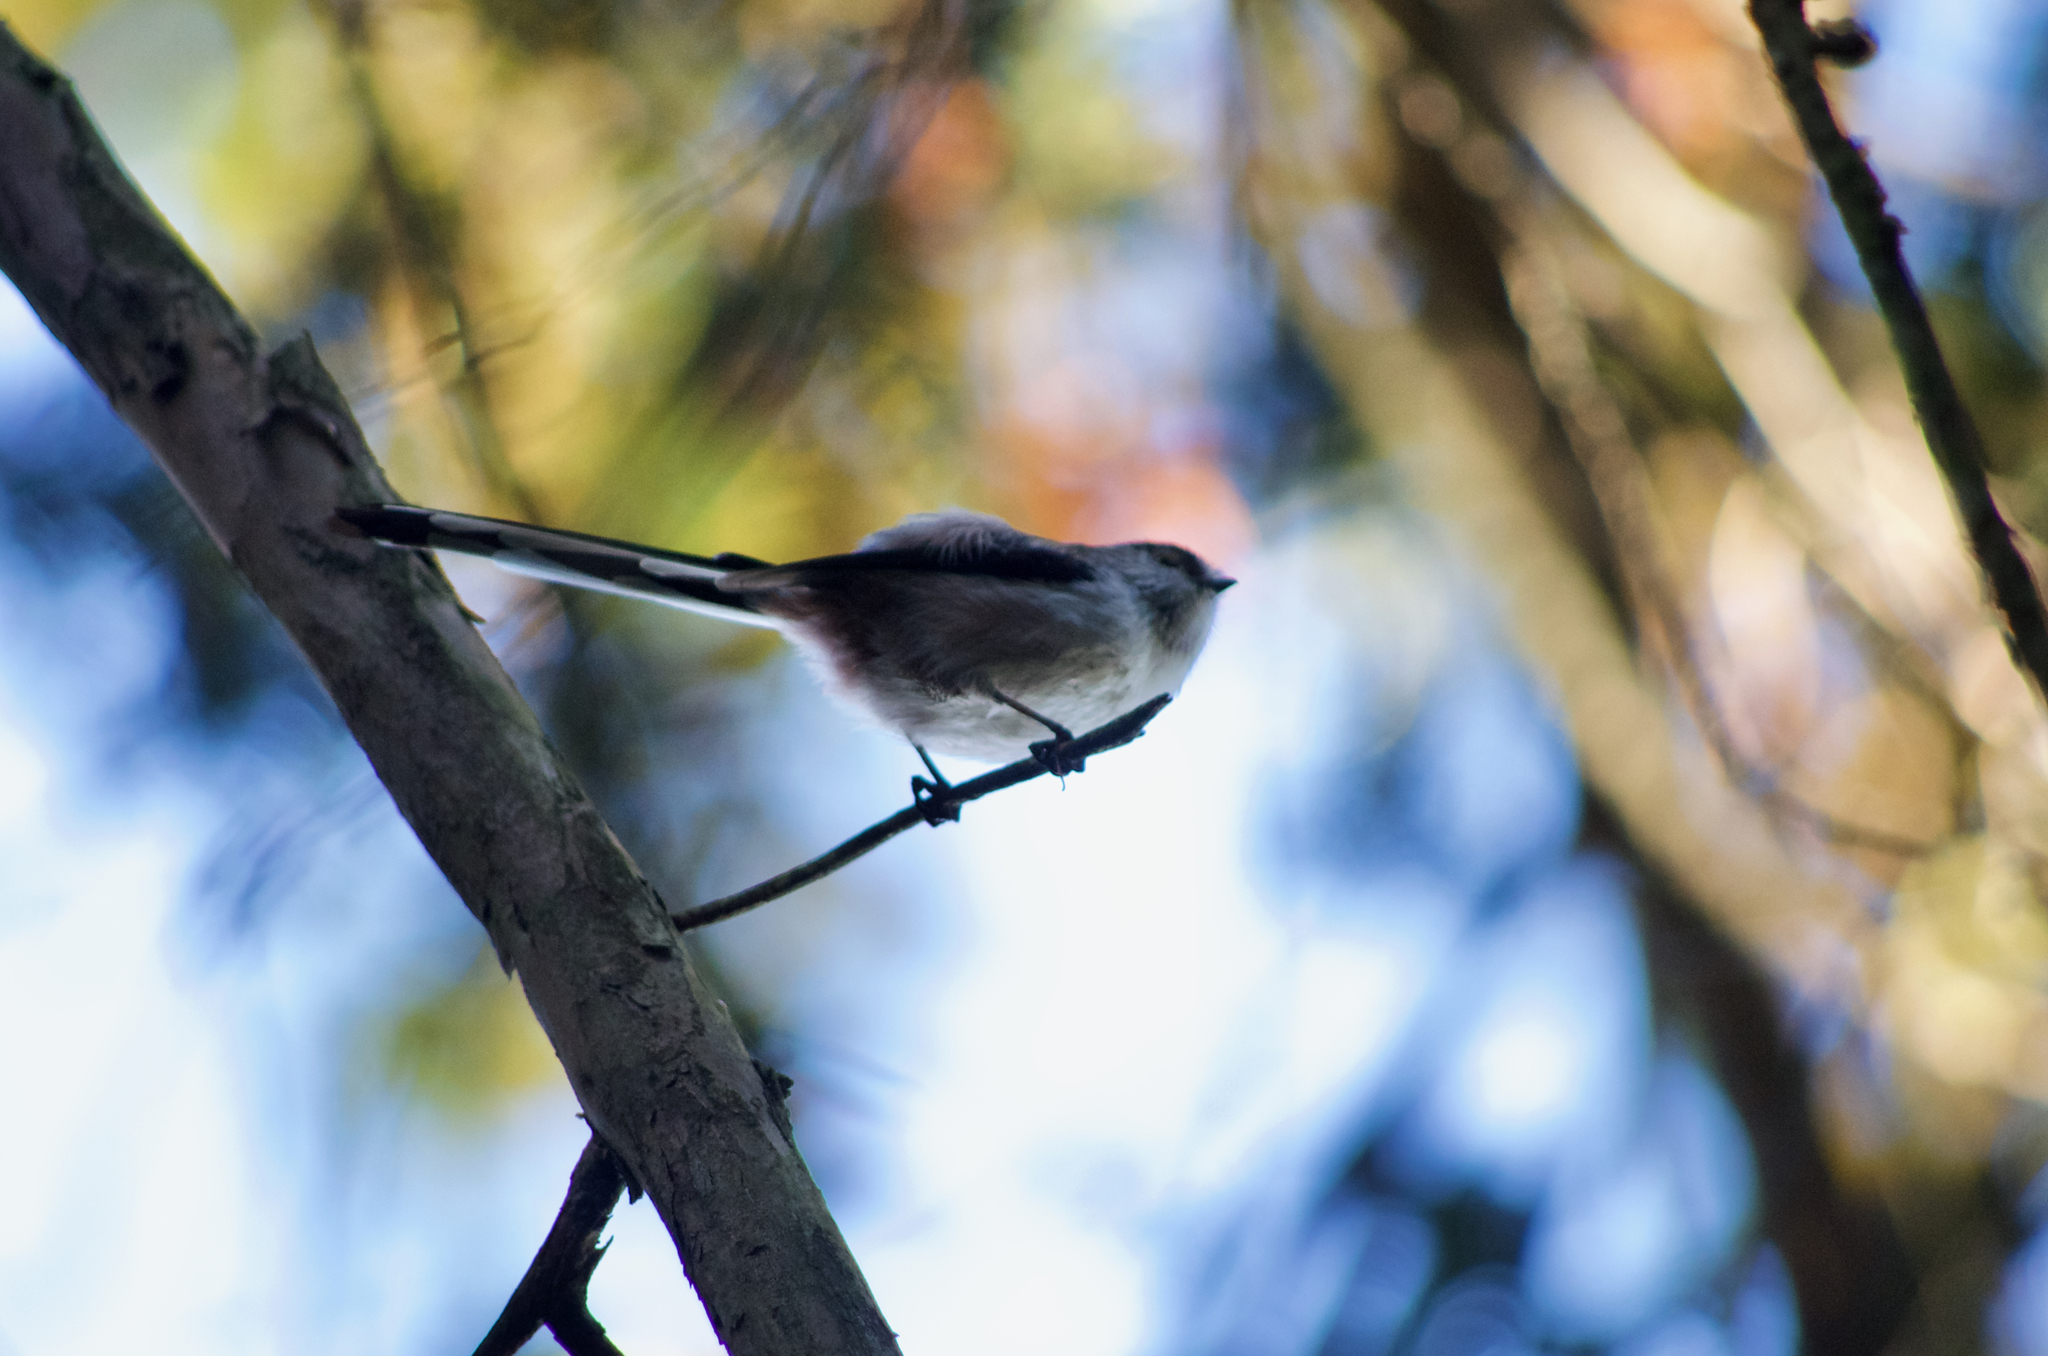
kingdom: Animalia
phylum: Chordata
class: Aves
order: Passeriformes
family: Aegithalidae
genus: Aegithalos
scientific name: Aegithalos caudatus
